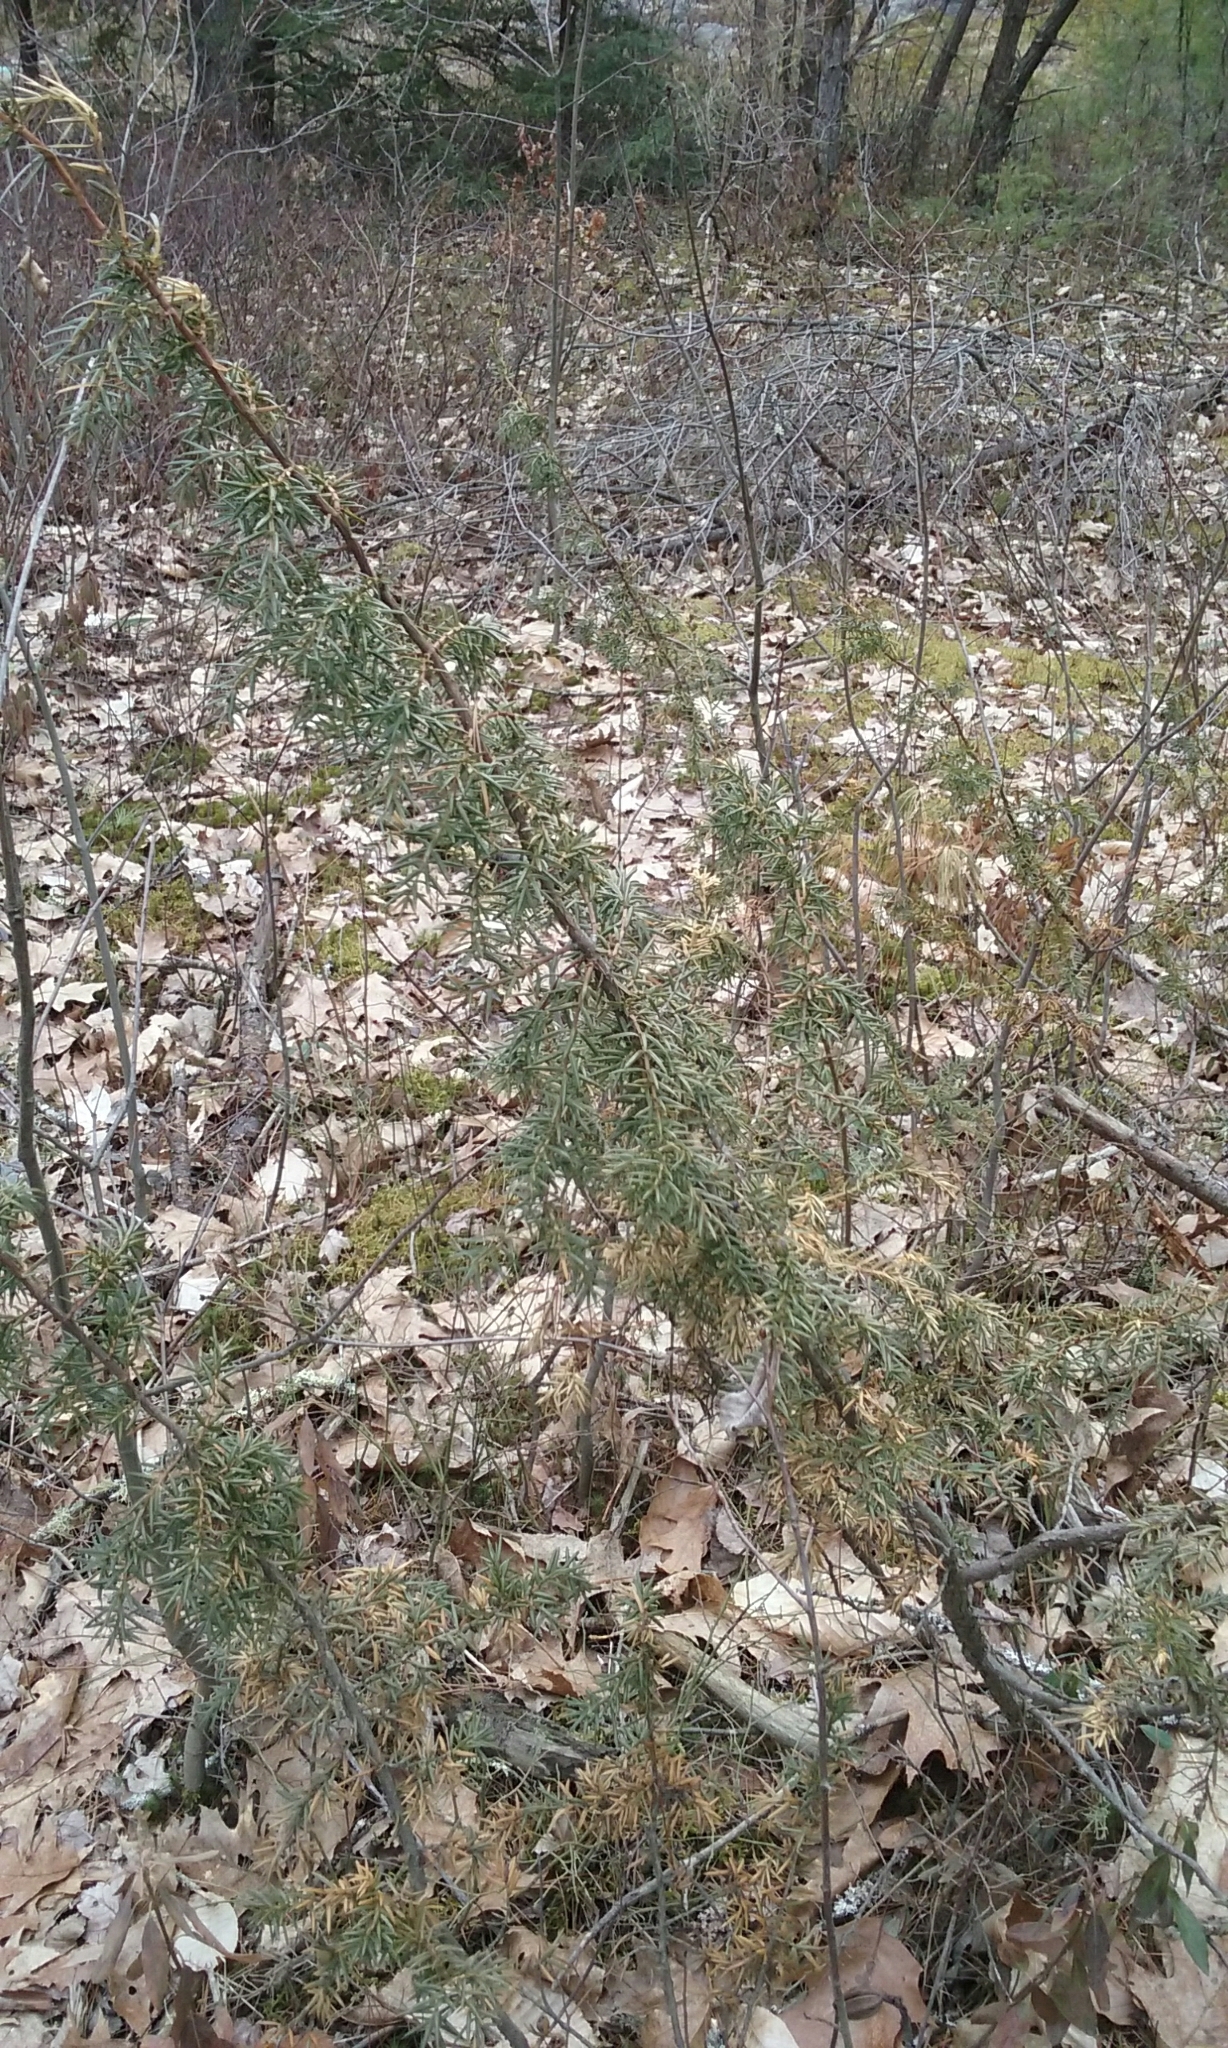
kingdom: Plantae
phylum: Tracheophyta
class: Pinopsida
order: Pinales
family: Cupressaceae
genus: Juniperus
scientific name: Juniperus communis
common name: Common juniper
